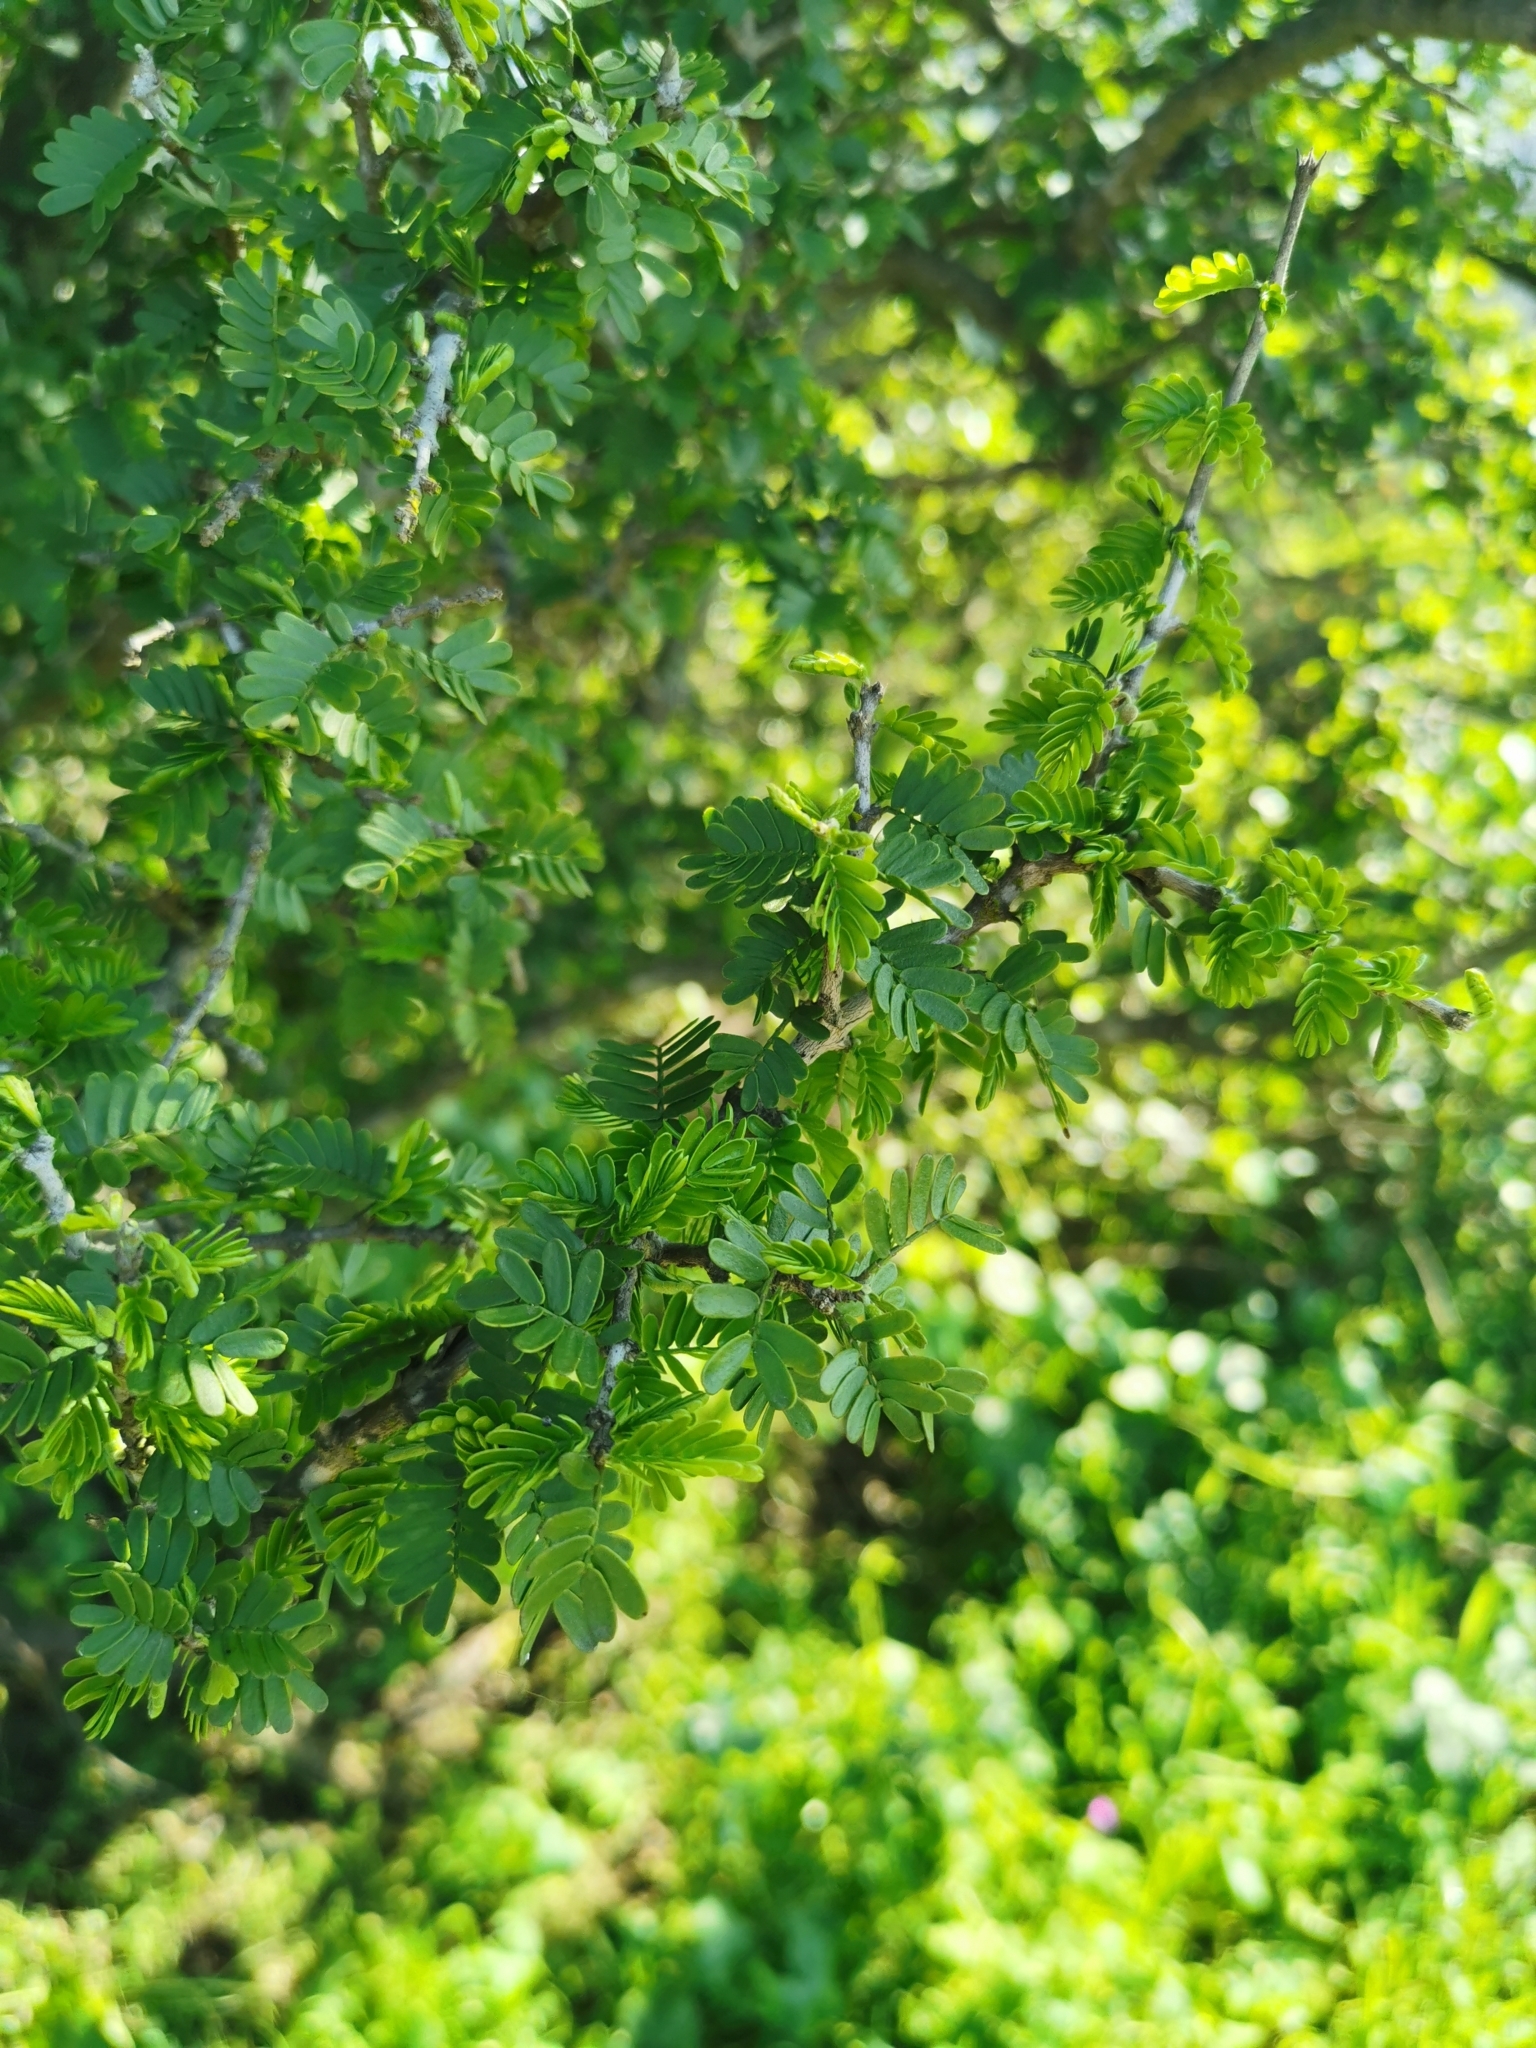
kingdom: Plantae
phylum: Tracheophyta
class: Magnoliopsida
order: Zygophyllales
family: Zygophyllaceae
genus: Porlieria
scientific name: Porlieria chilensis
